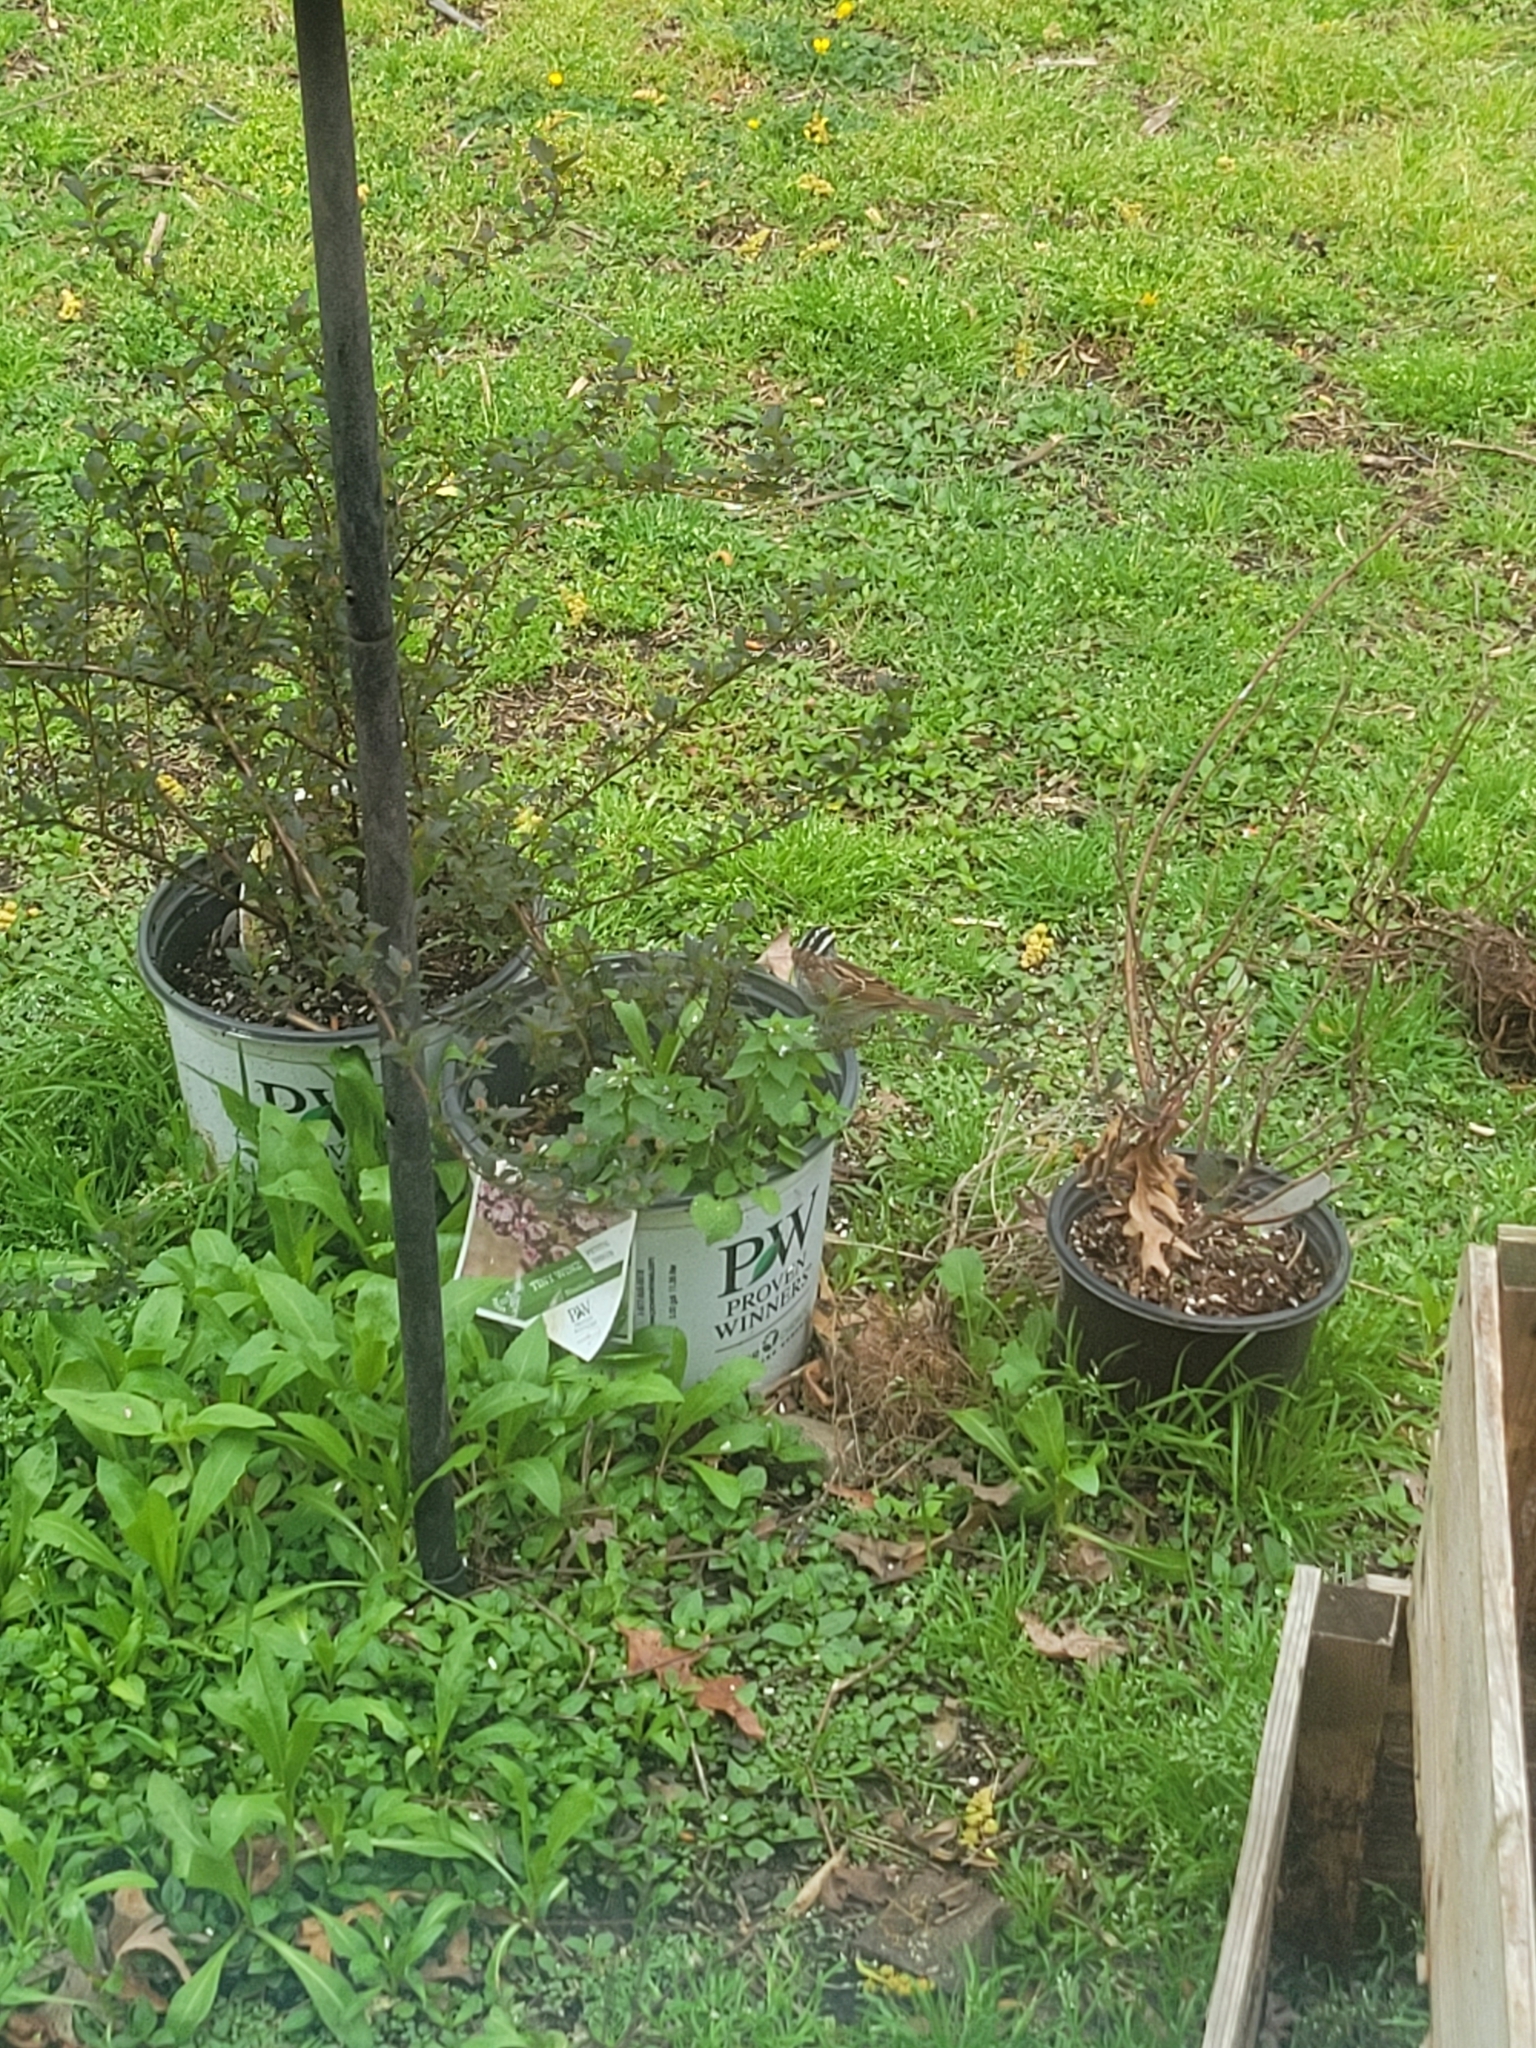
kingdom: Animalia
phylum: Chordata
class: Aves
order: Passeriformes
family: Passerellidae
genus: Zonotrichia
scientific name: Zonotrichia albicollis
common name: White-throated sparrow
